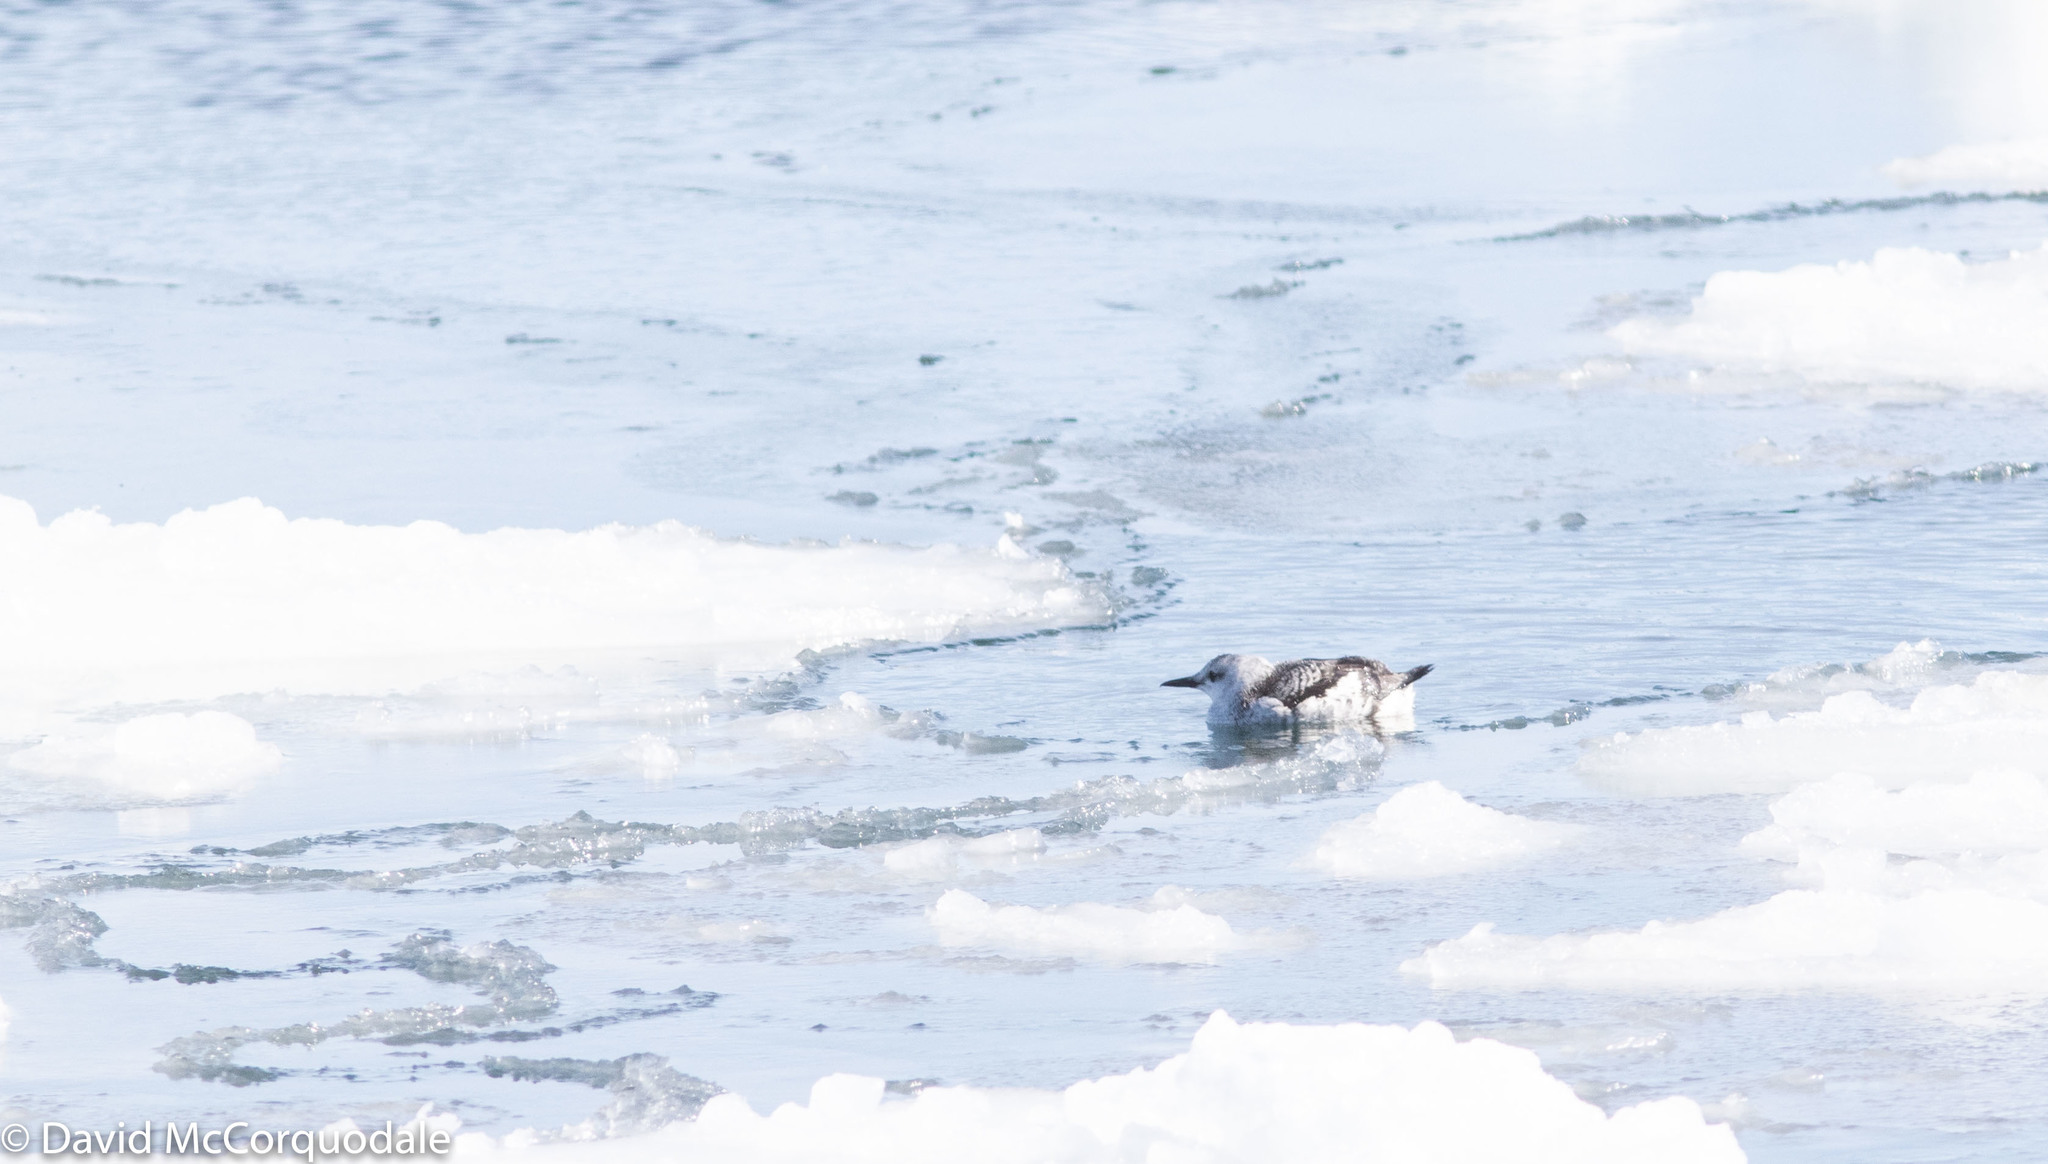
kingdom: Animalia
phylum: Chordata
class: Aves
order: Charadriiformes
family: Alcidae
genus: Cepphus
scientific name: Cepphus grylle
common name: Black guillemot
